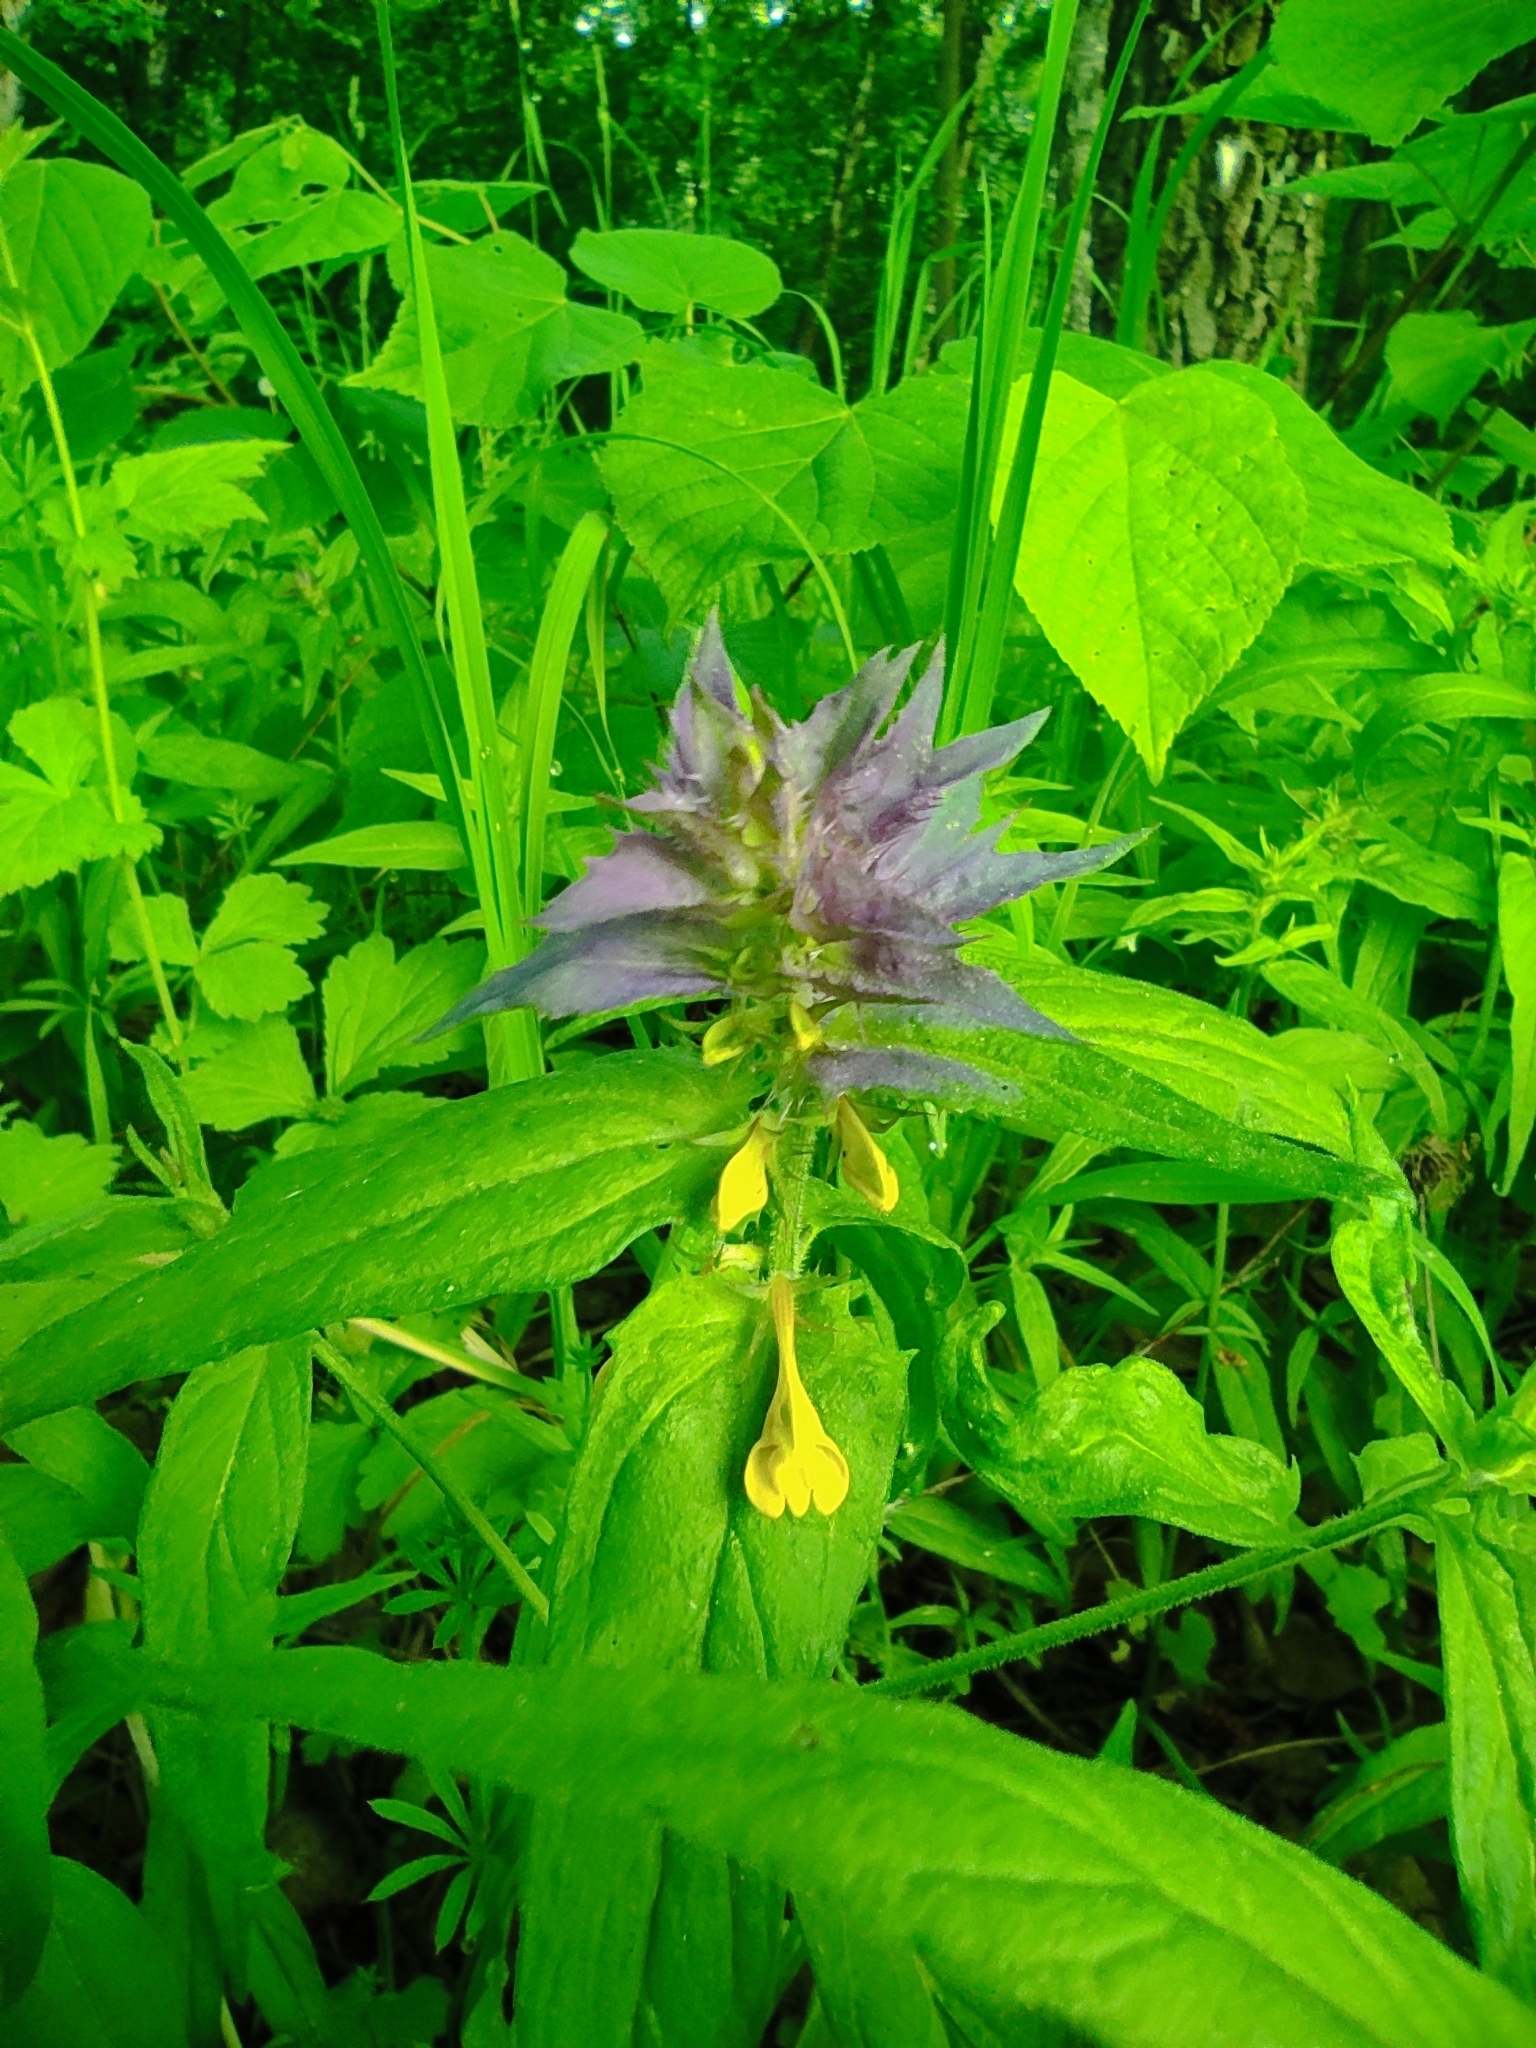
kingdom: Plantae
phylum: Tracheophyta
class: Magnoliopsida
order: Lamiales
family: Orobanchaceae
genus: Melampyrum
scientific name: Melampyrum nemorosum
